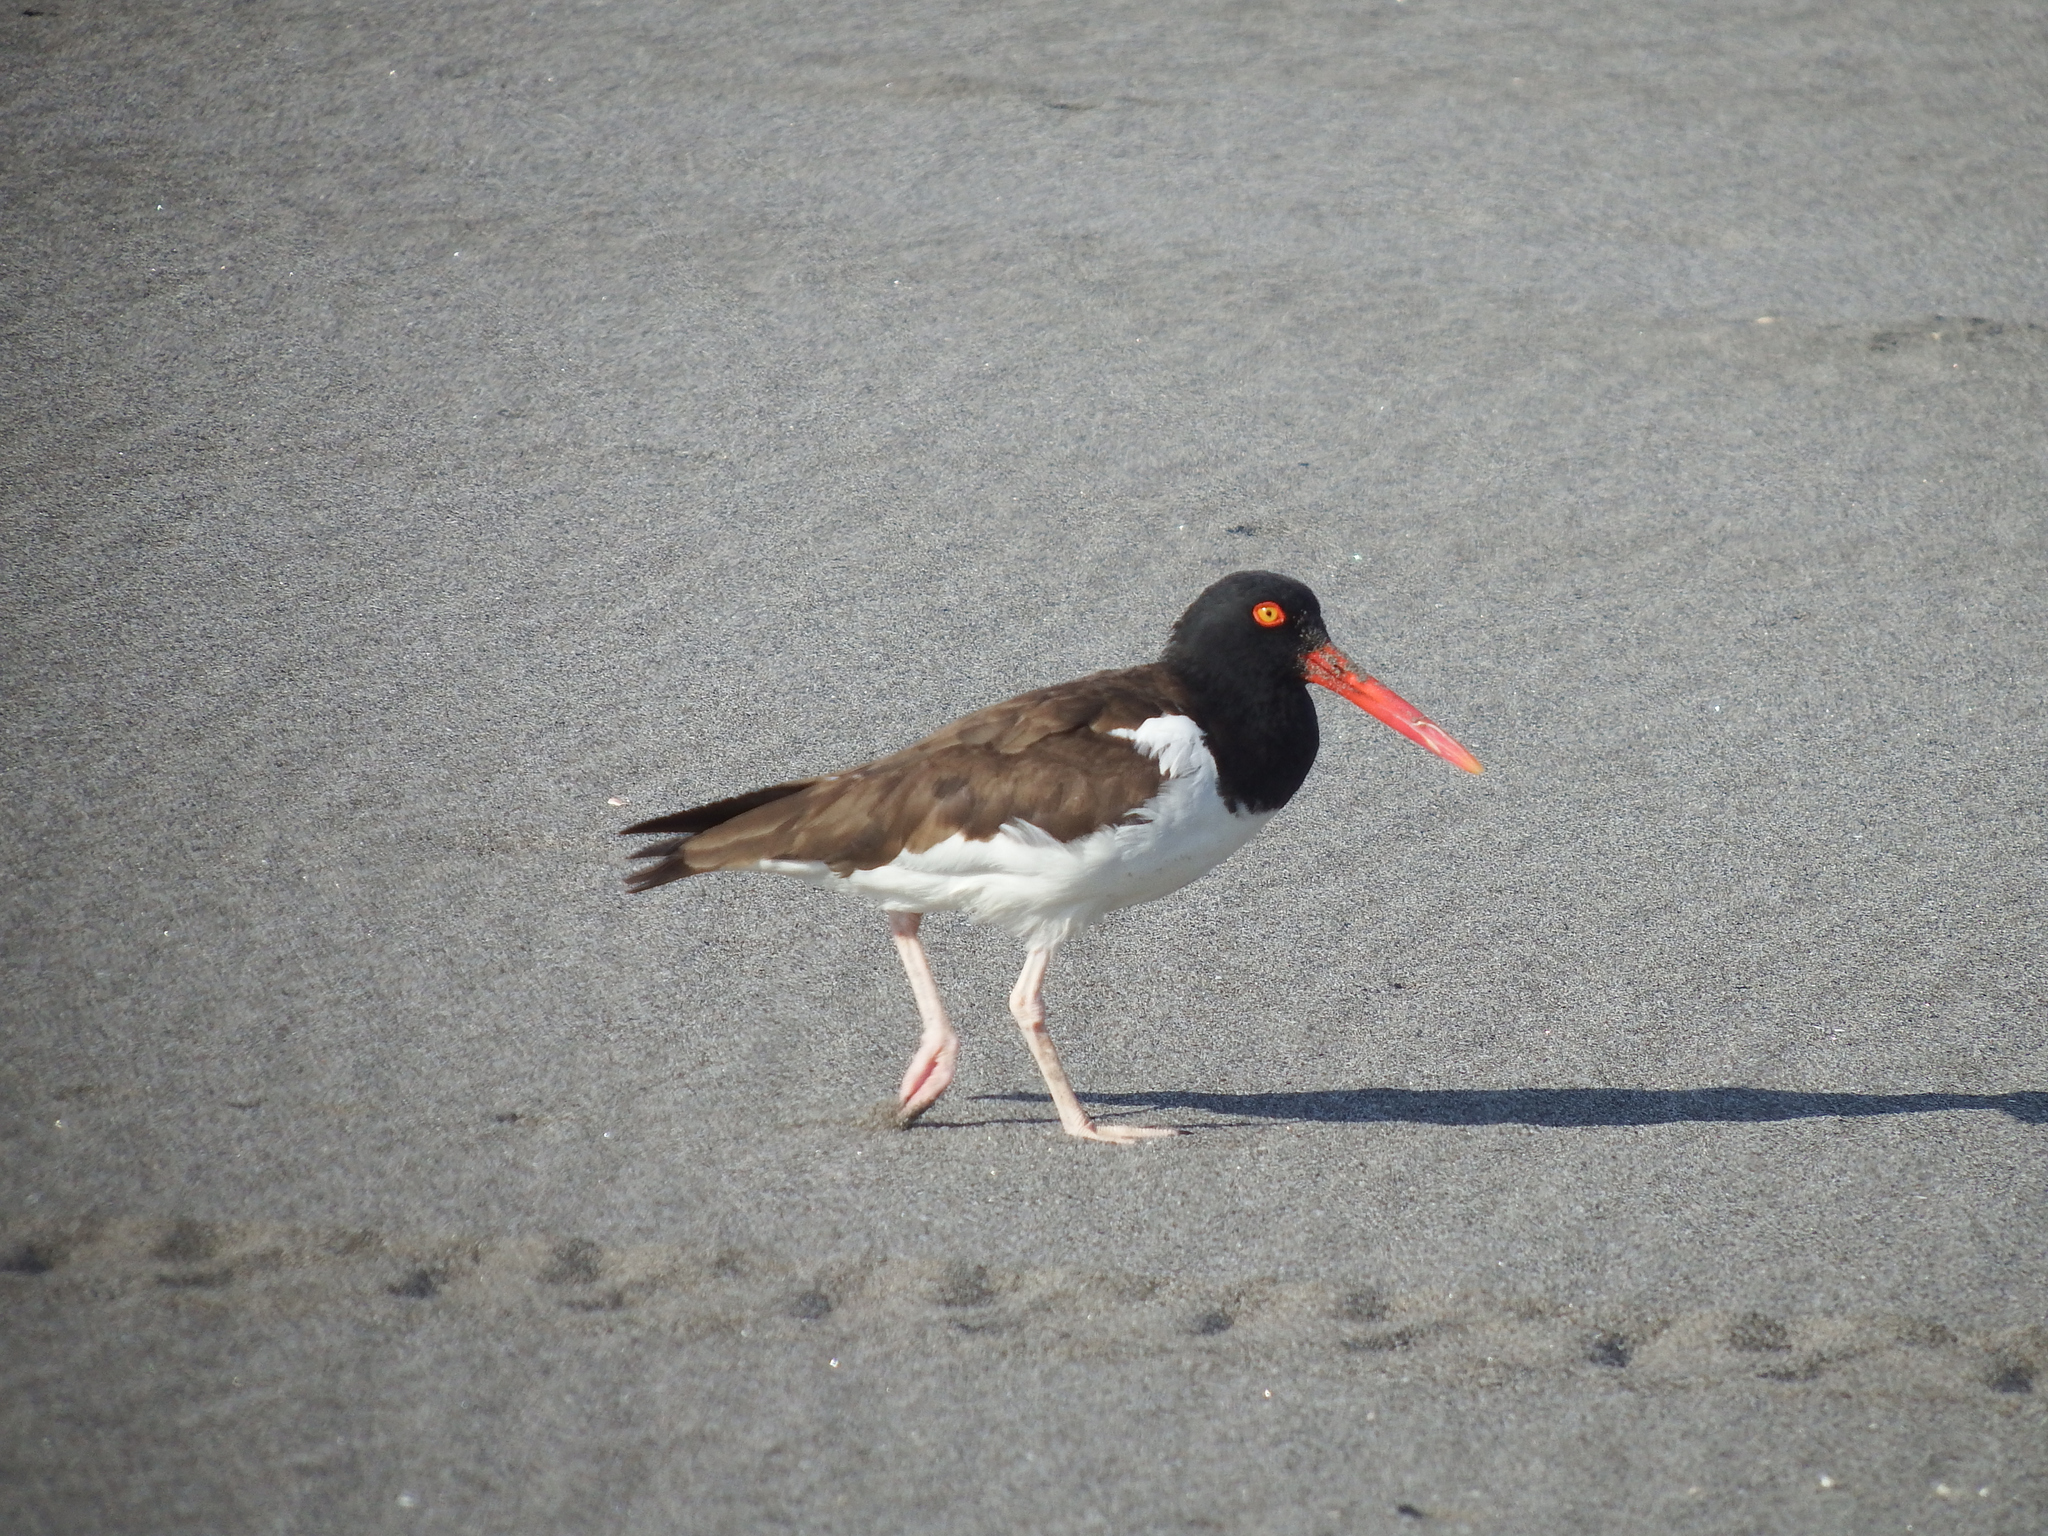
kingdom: Animalia
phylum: Chordata
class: Aves
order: Charadriiformes
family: Haematopodidae
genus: Haematopus
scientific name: Haematopus palliatus
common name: American oystercatcher
